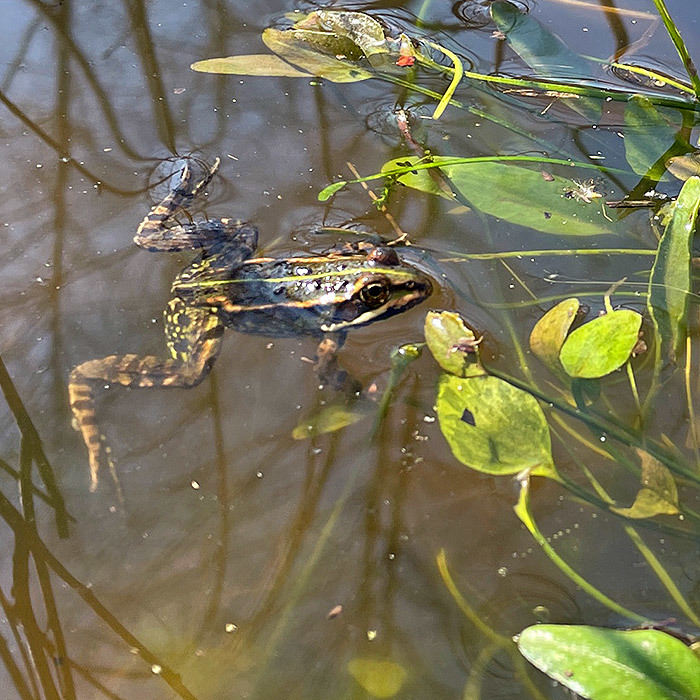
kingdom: Animalia
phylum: Chordata
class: Amphibia
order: Anura
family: Ranidae
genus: Pelophylax
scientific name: Pelophylax
